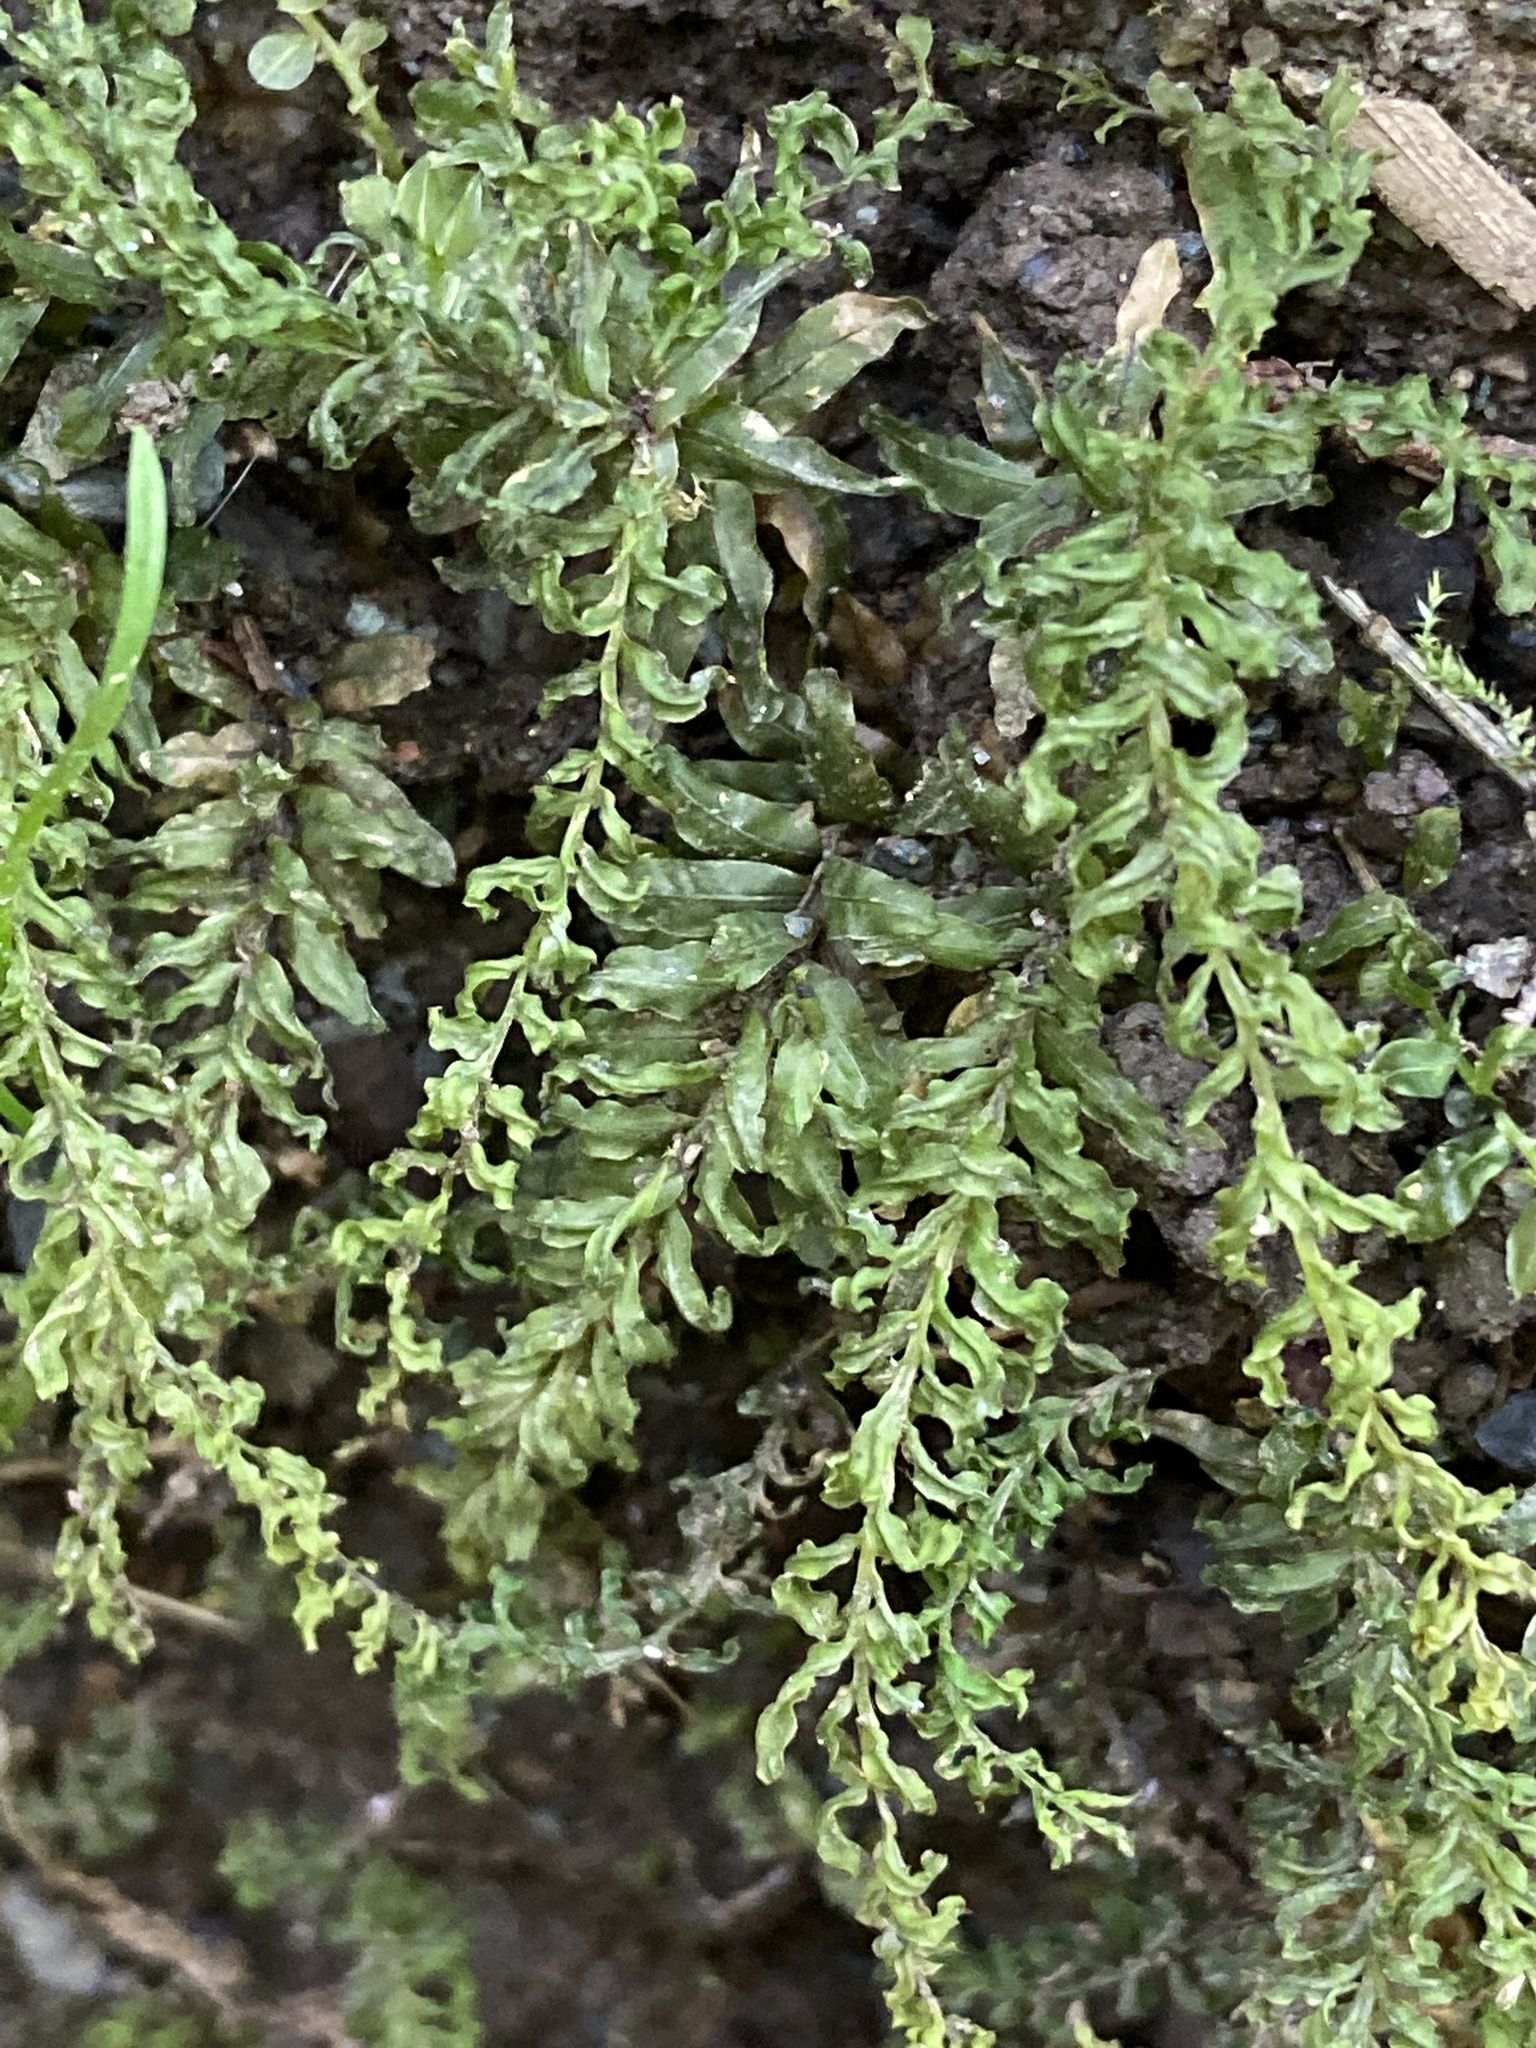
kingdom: Plantae
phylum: Bryophyta
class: Bryopsida
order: Bryales
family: Mniaceae
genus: Plagiomnium
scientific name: Plagiomnium undulatum
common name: Hart's-tongue thyme-moss
